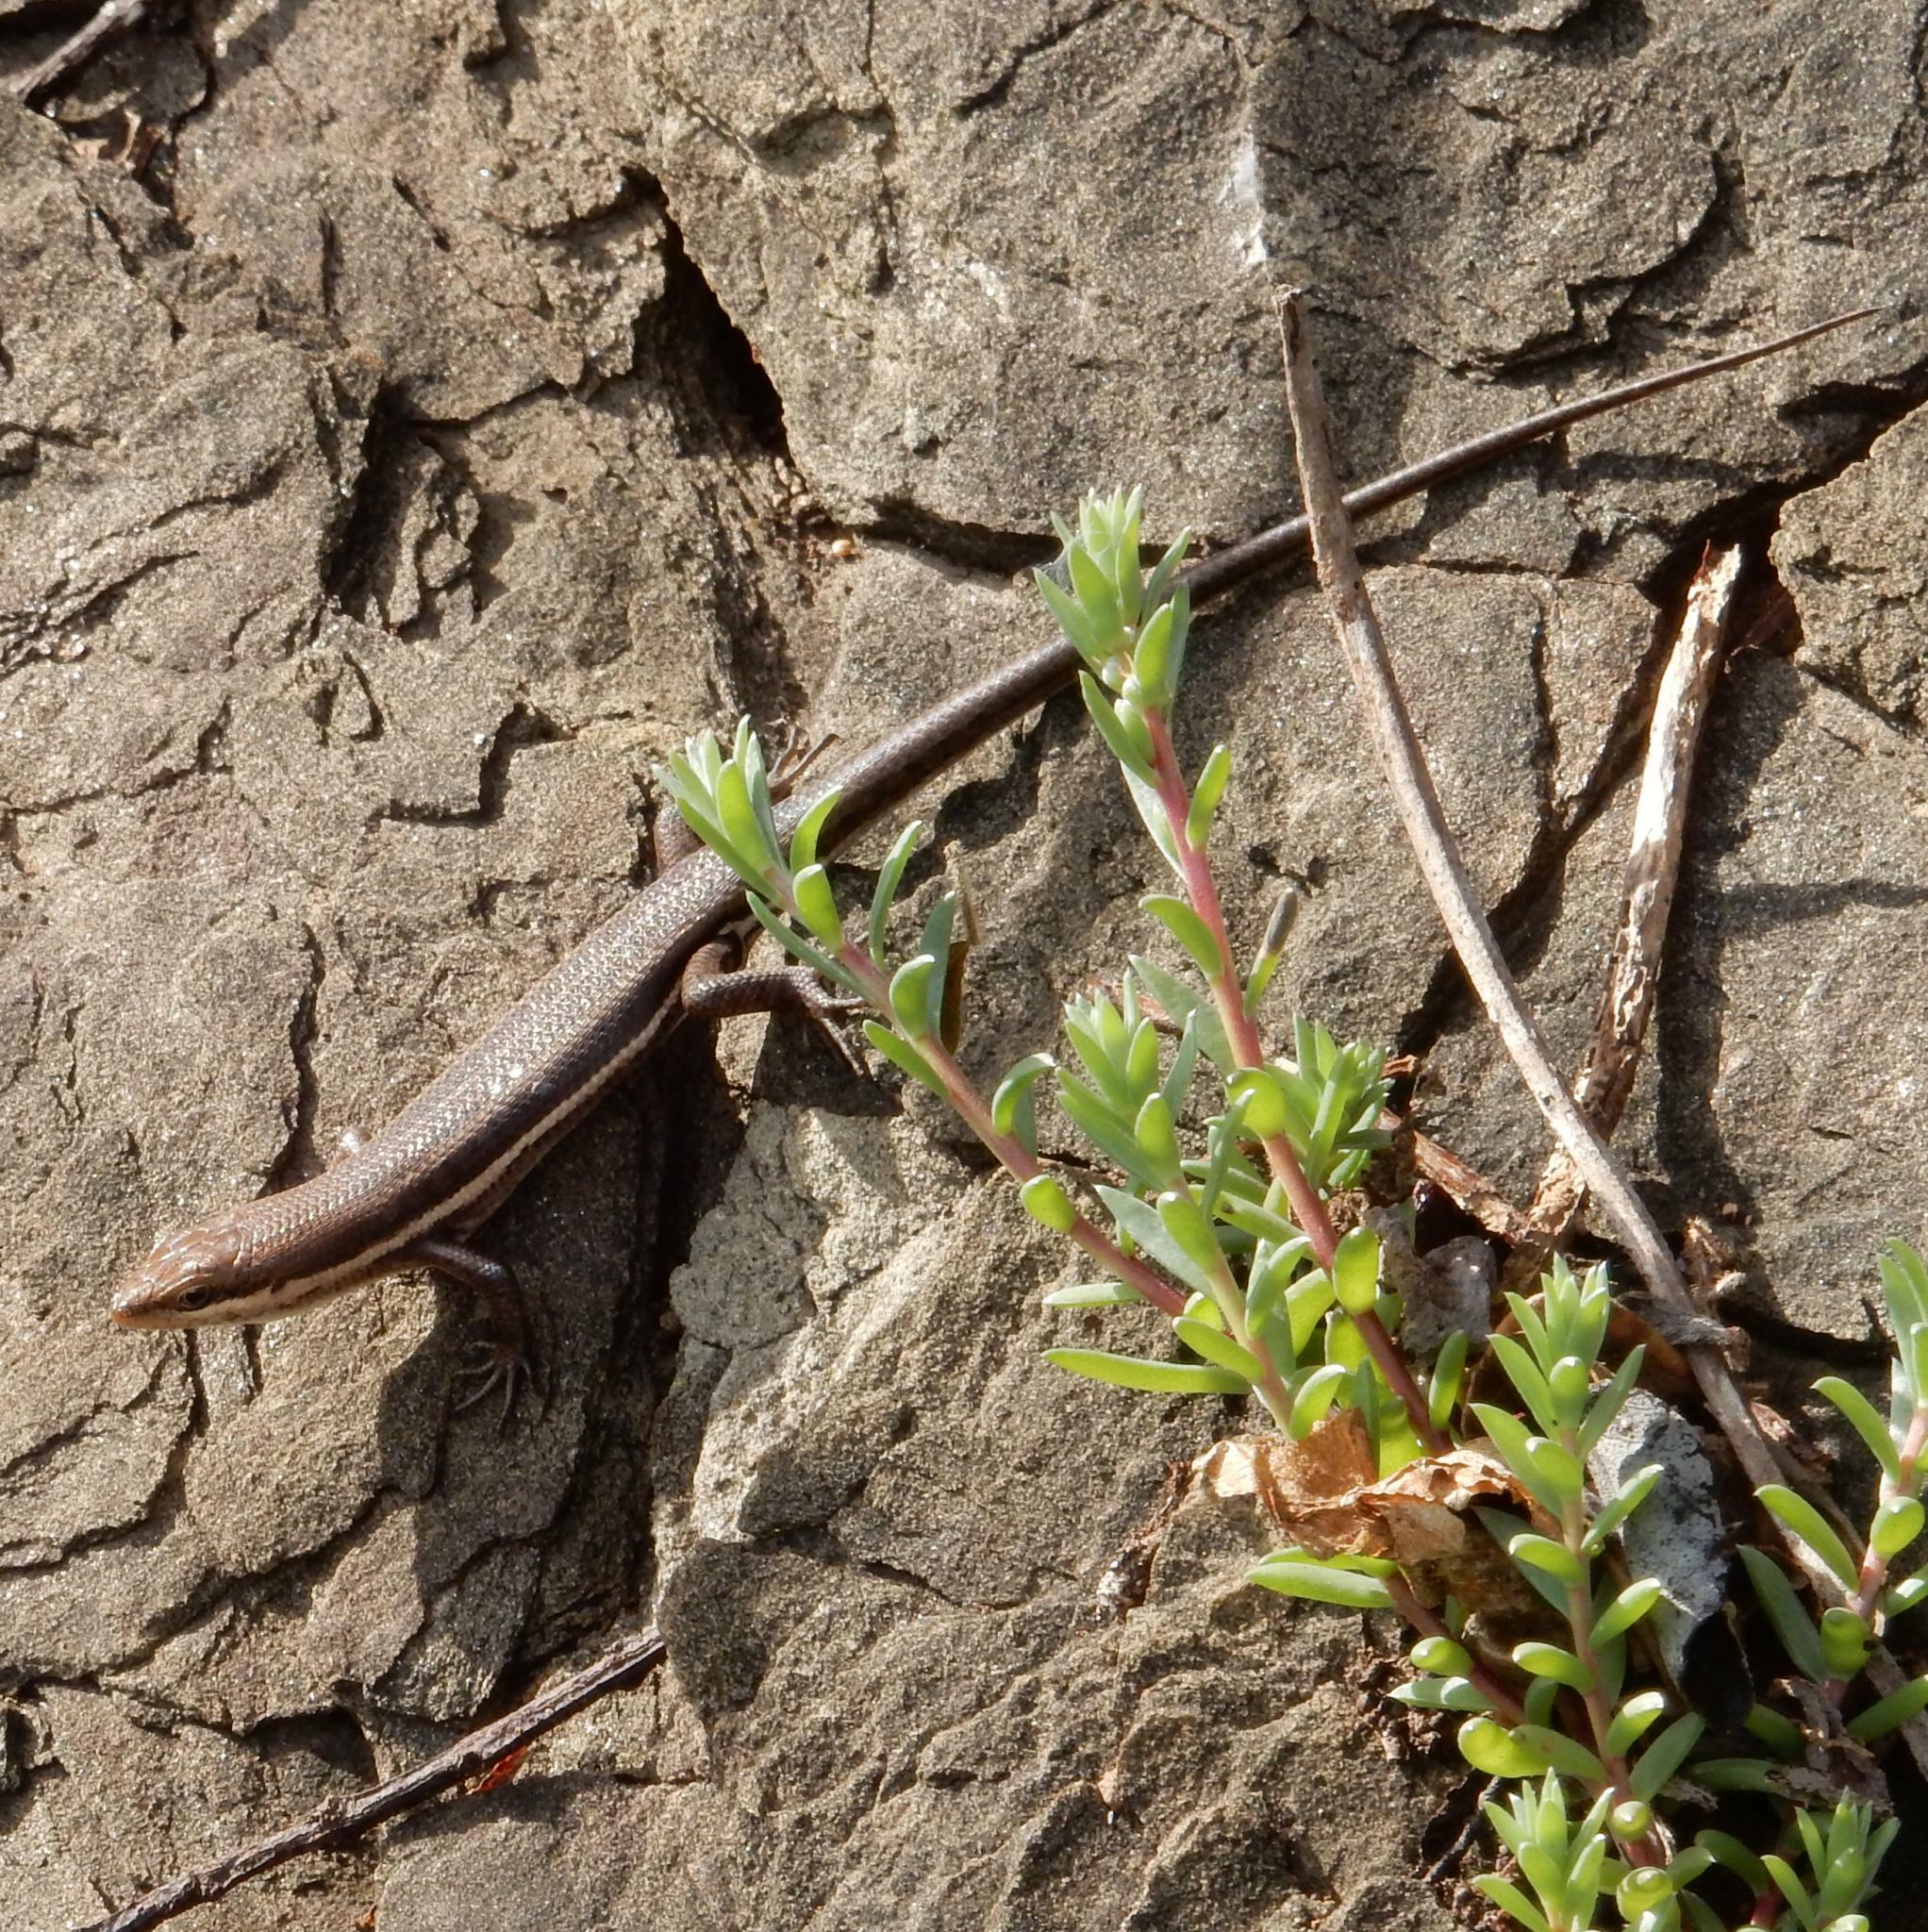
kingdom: Animalia
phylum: Chordata
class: Squamata
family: Scincidae
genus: Trachylepis
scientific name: Trachylepis varia
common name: Eastern variable skink
